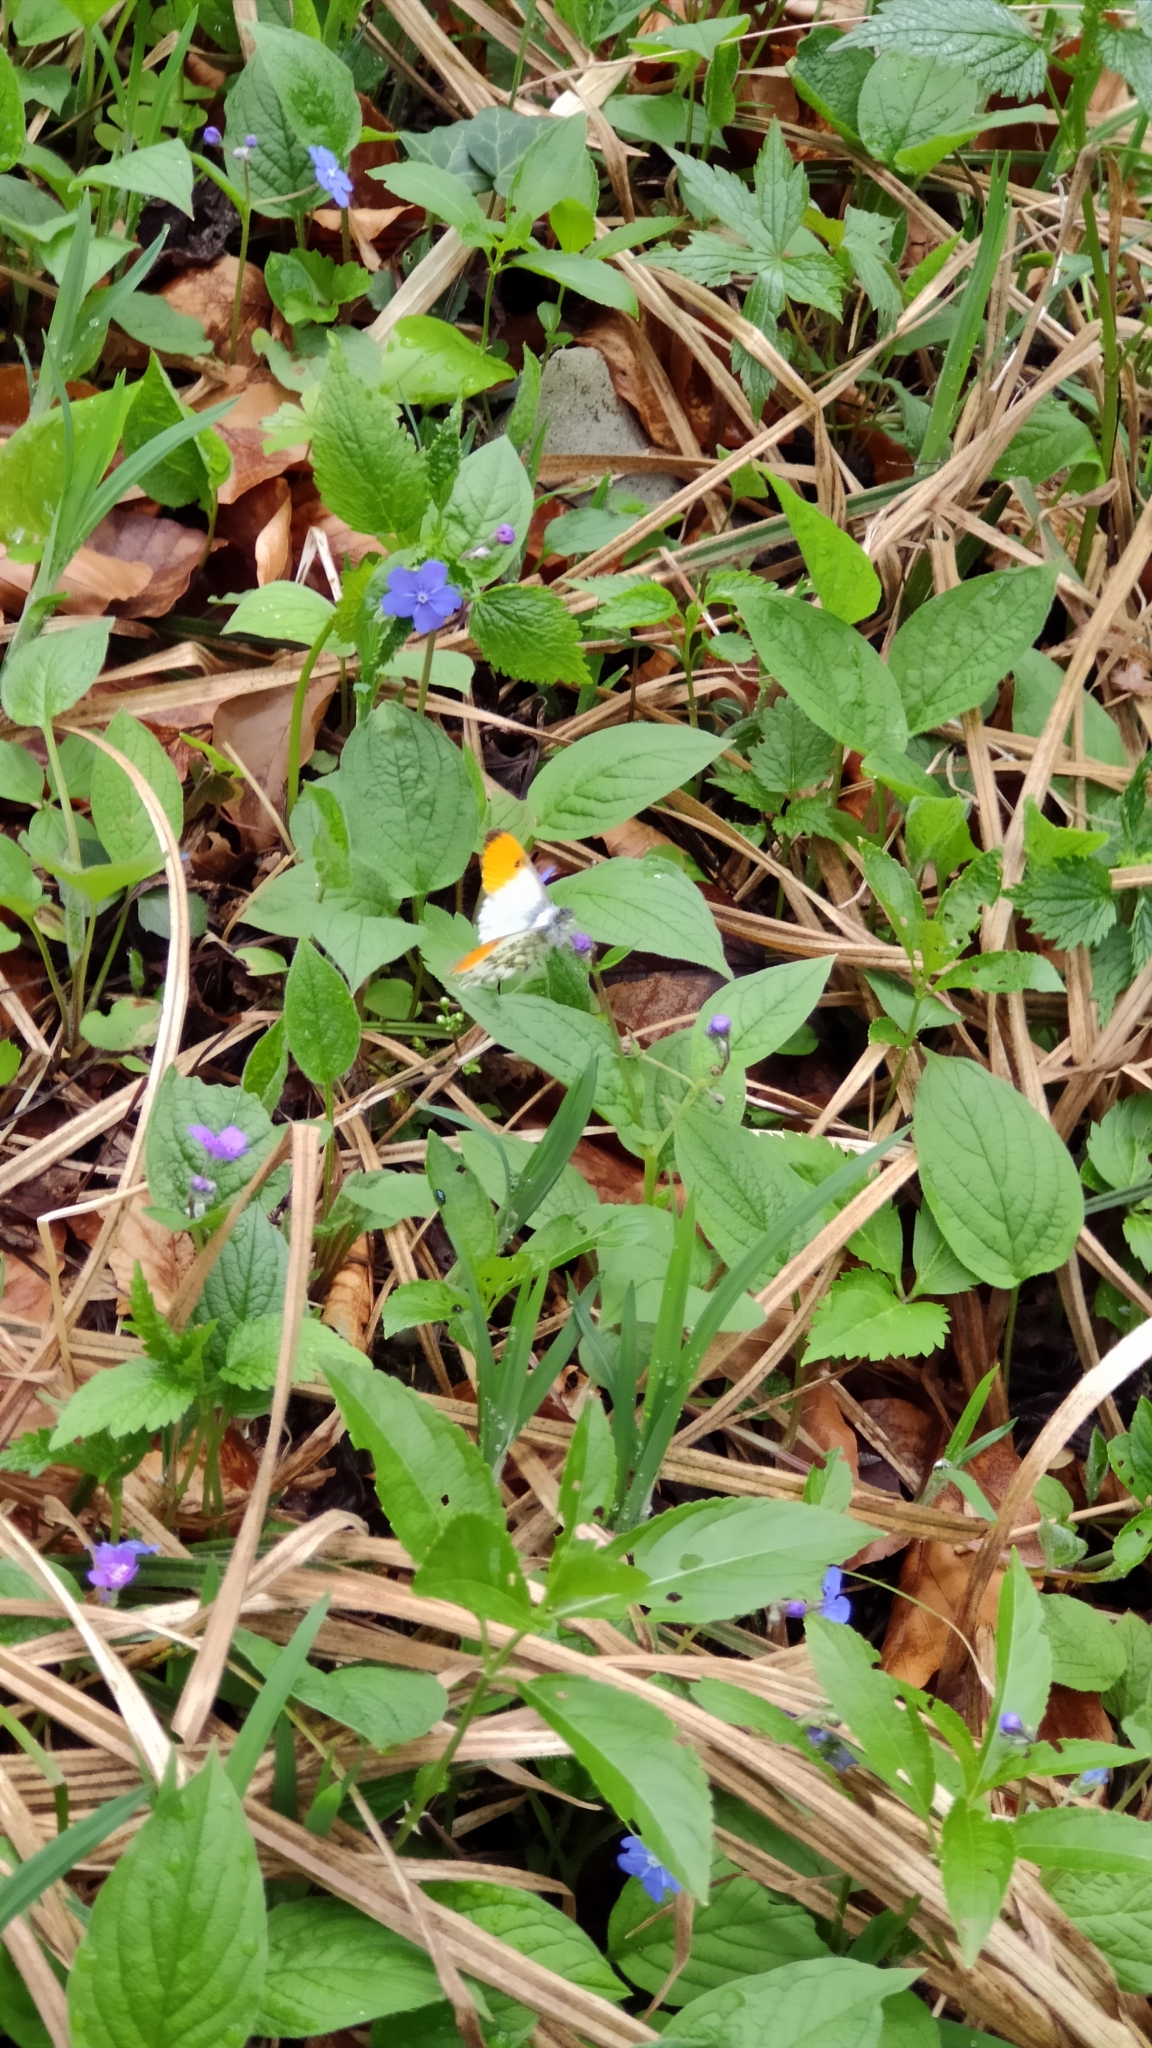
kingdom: Animalia
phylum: Arthropoda
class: Insecta
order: Lepidoptera
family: Pieridae
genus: Anthocharis
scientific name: Anthocharis cardamines
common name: Orange-tip
